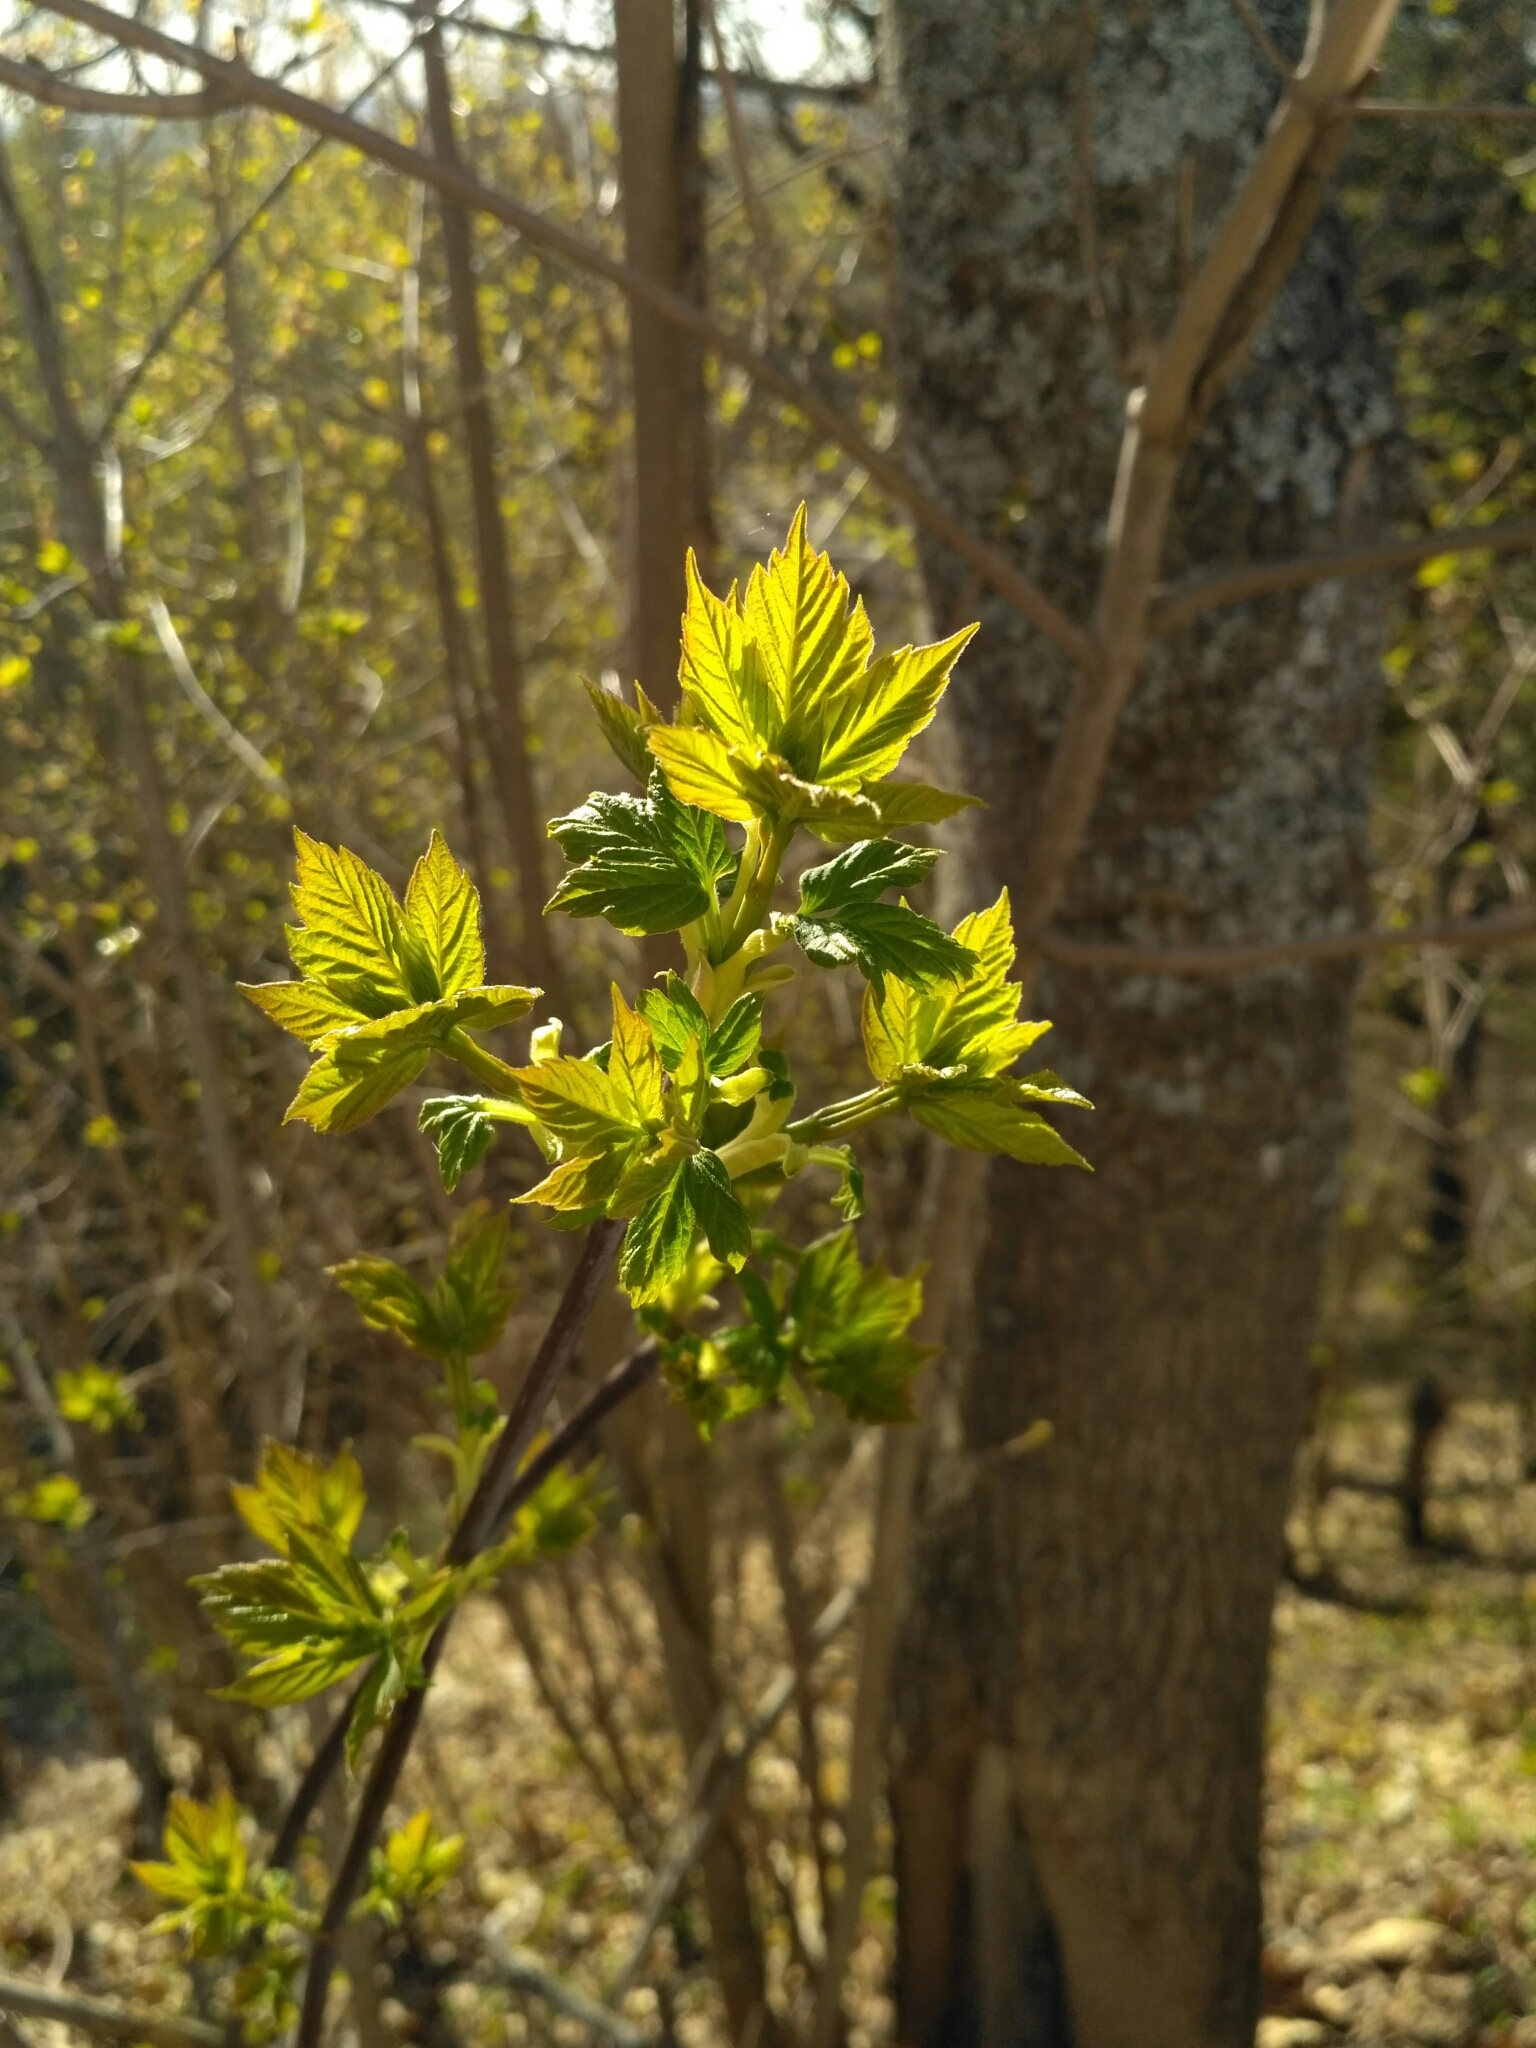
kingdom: Plantae
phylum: Tracheophyta
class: Magnoliopsida
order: Sapindales
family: Sapindaceae
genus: Acer
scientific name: Acer negundo
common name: Ashleaf maple
